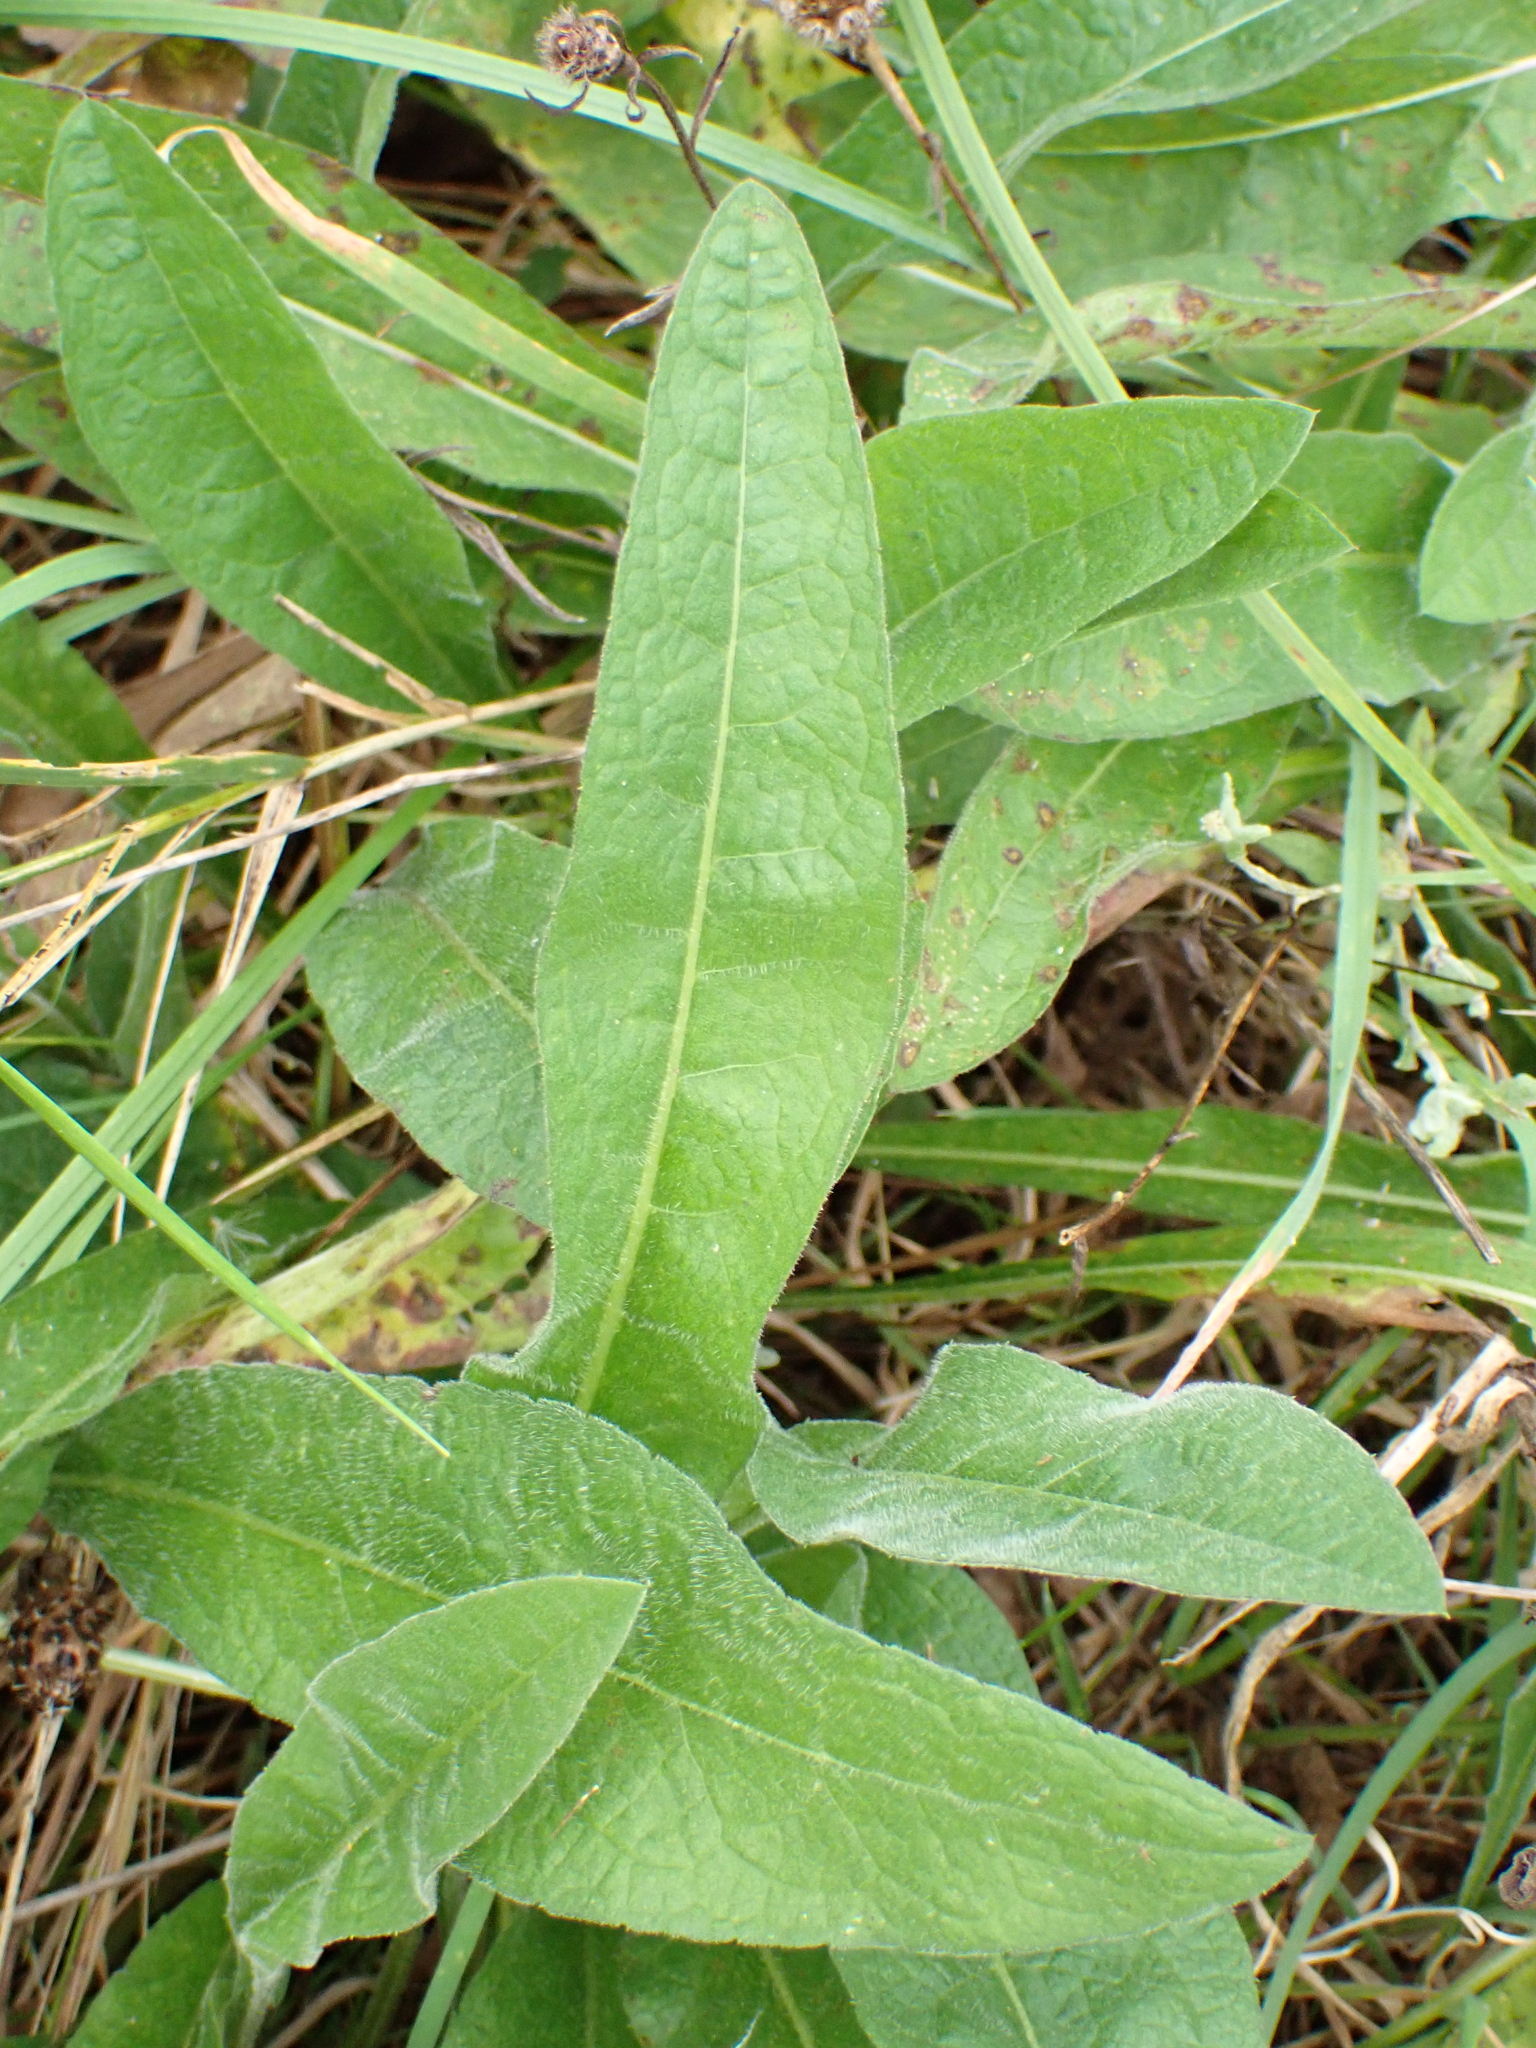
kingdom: Plantae
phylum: Tracheophyta
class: Magnoliopsida
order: Asterales
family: Asteraceae
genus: Centaurea
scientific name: Centaurea nigra
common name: Lesser knapweed
